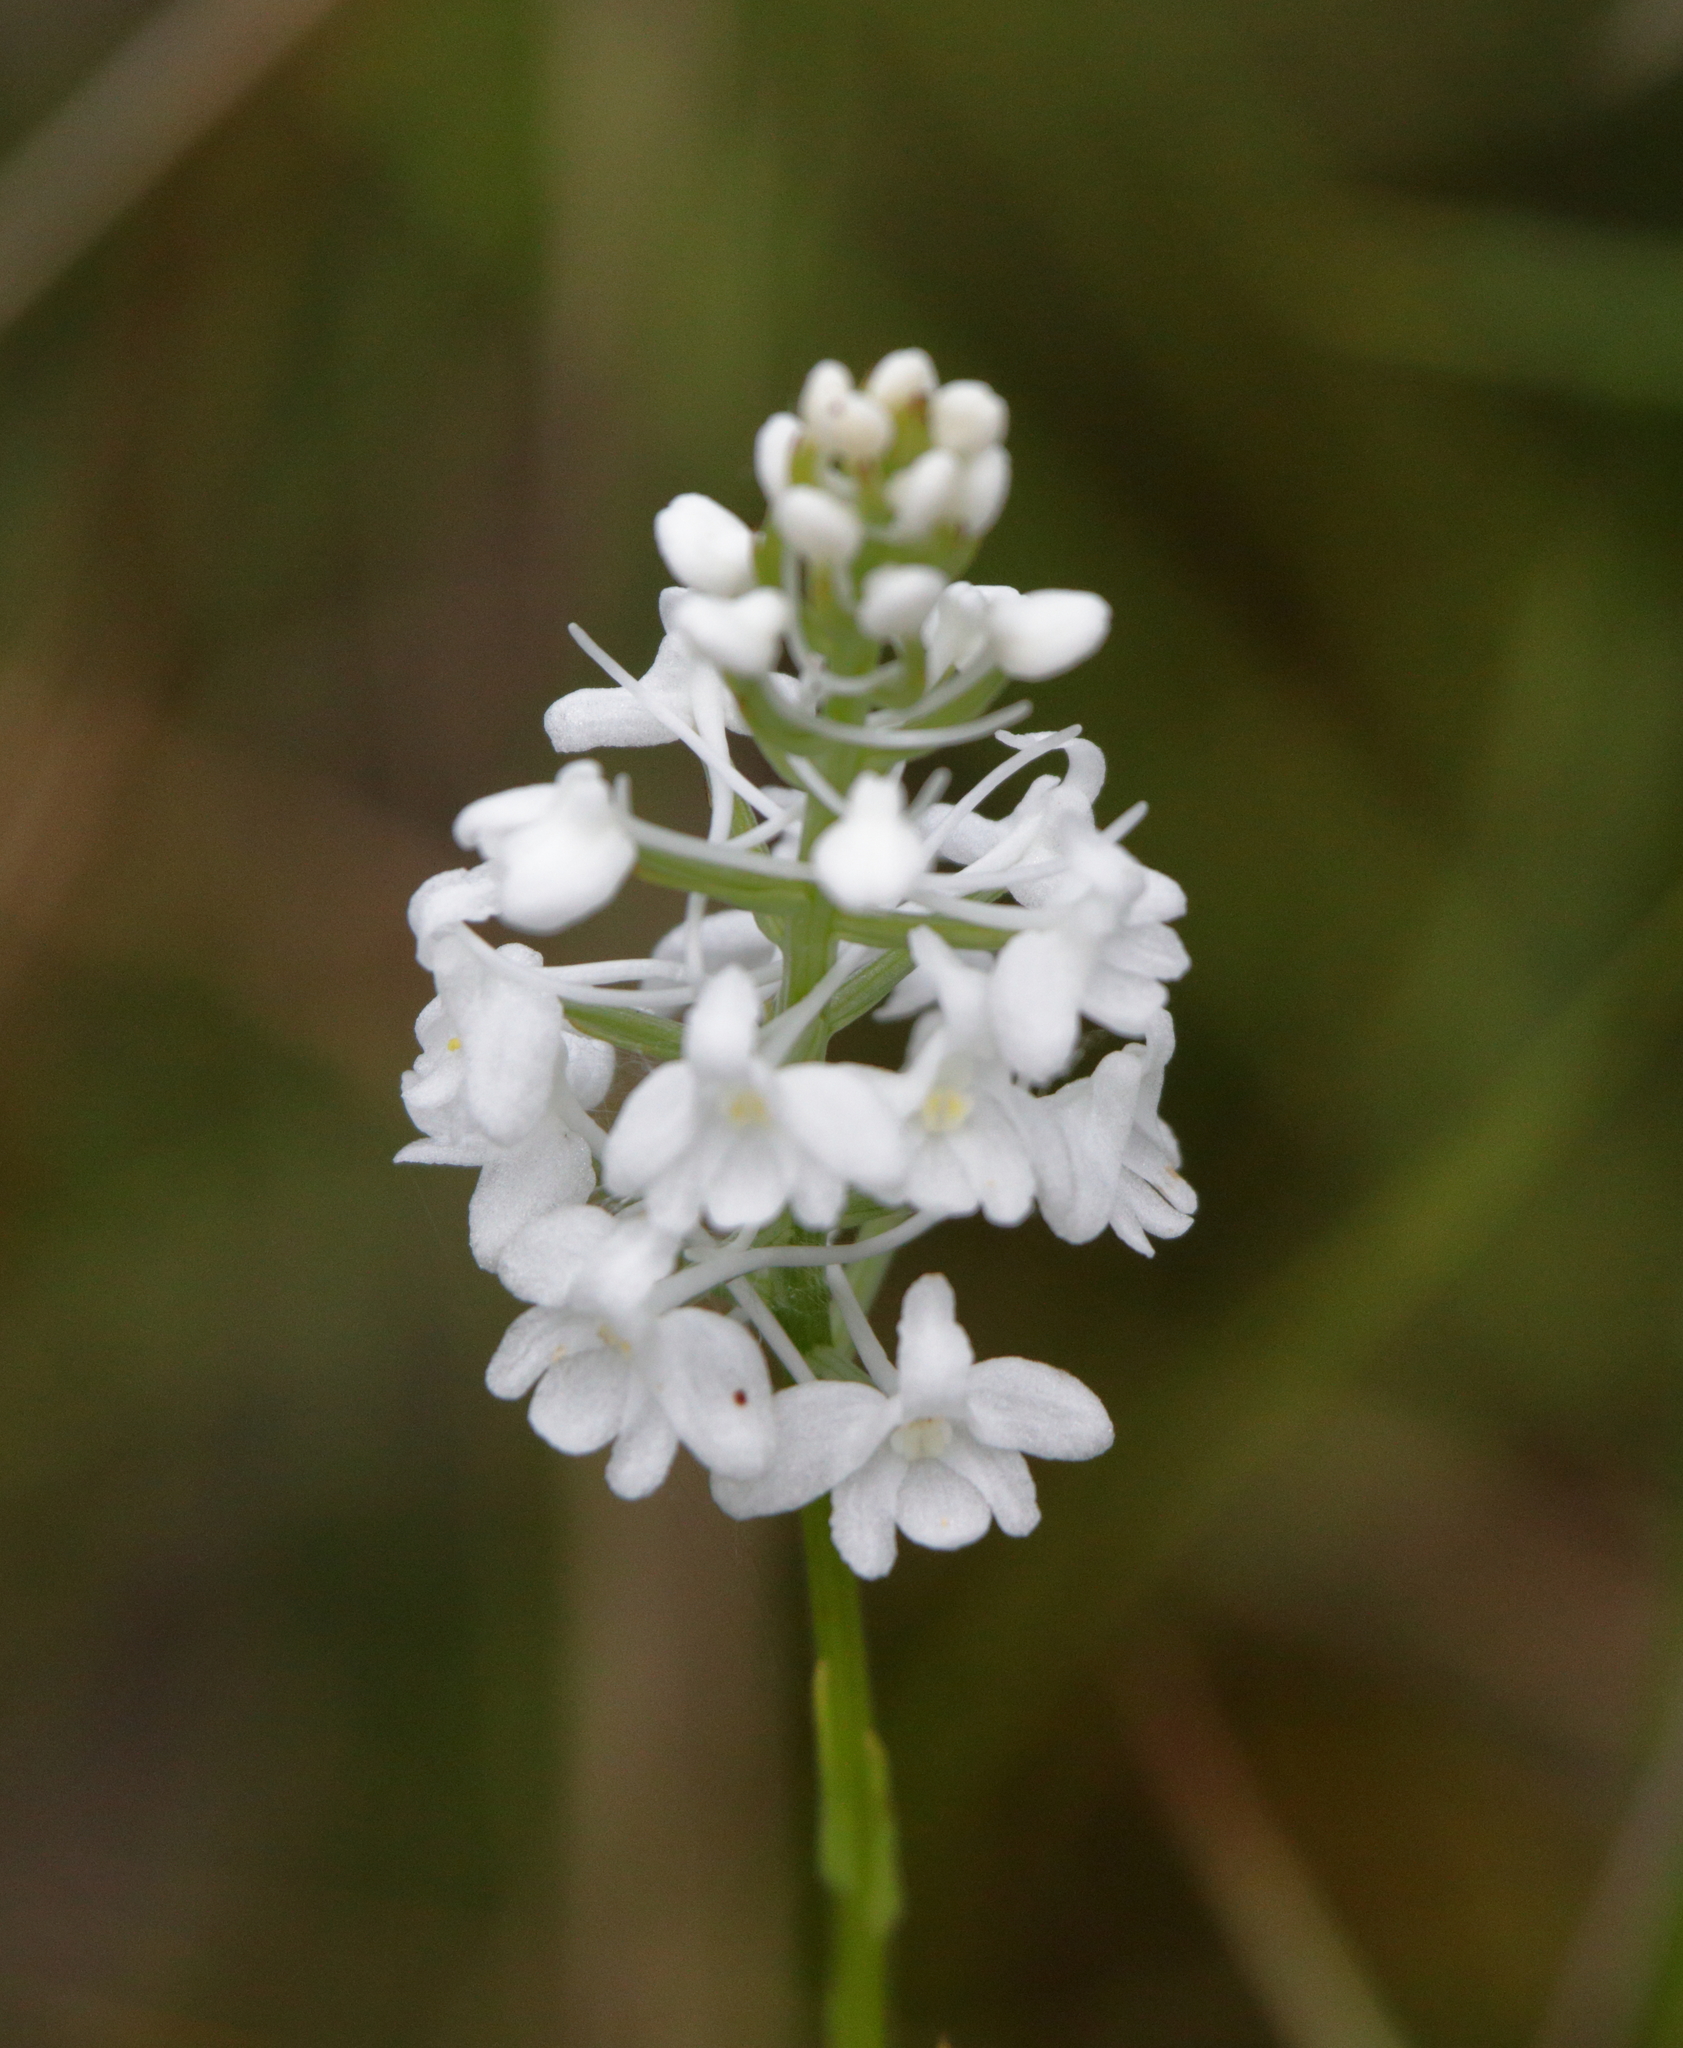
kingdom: Plantae
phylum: Tracheophyta
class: Liliopsida
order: Asparagales
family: Orchidaceae
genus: Platanthera
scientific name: Platanthera nivea
